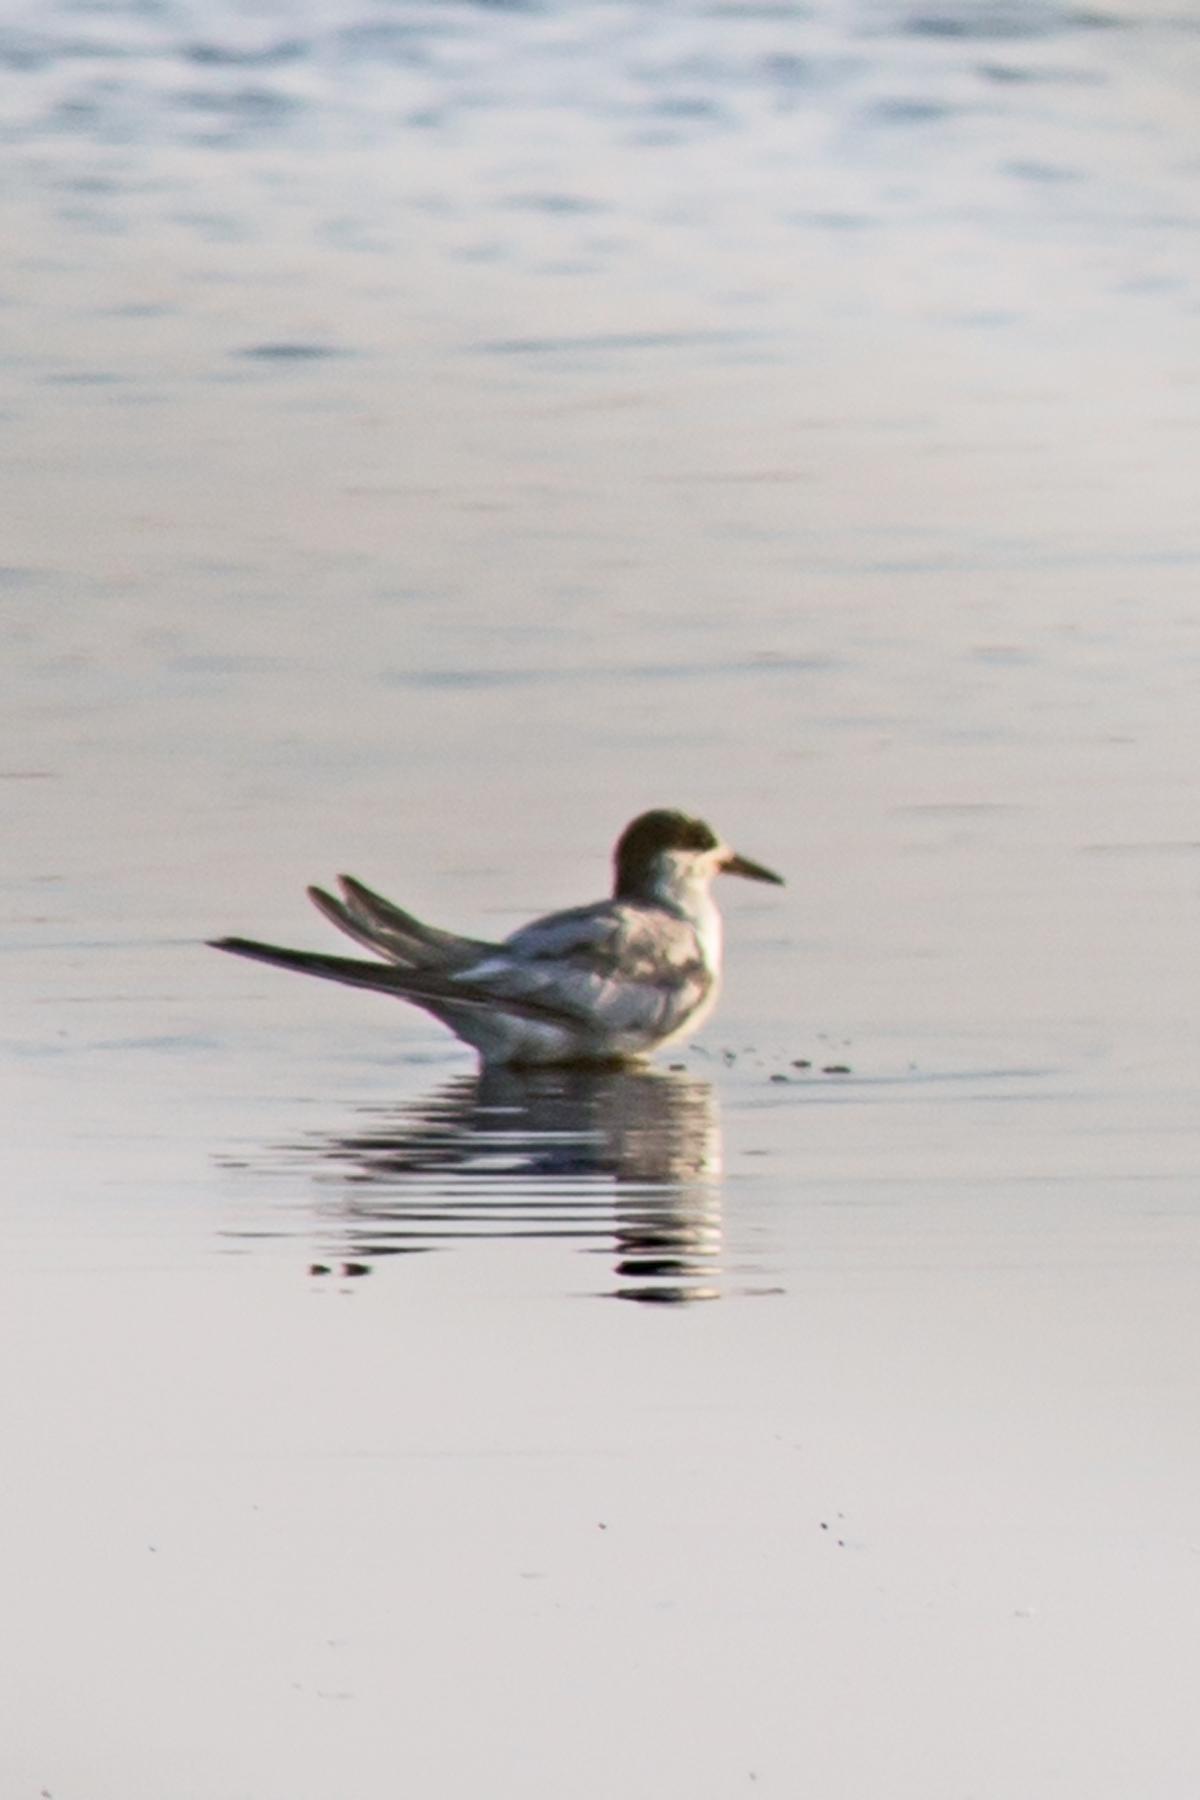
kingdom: Animalia
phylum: Chordata
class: Aves
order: Charadriiformes
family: Laridae
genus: Sterna
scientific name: Sterna hirundo
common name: Common tern
